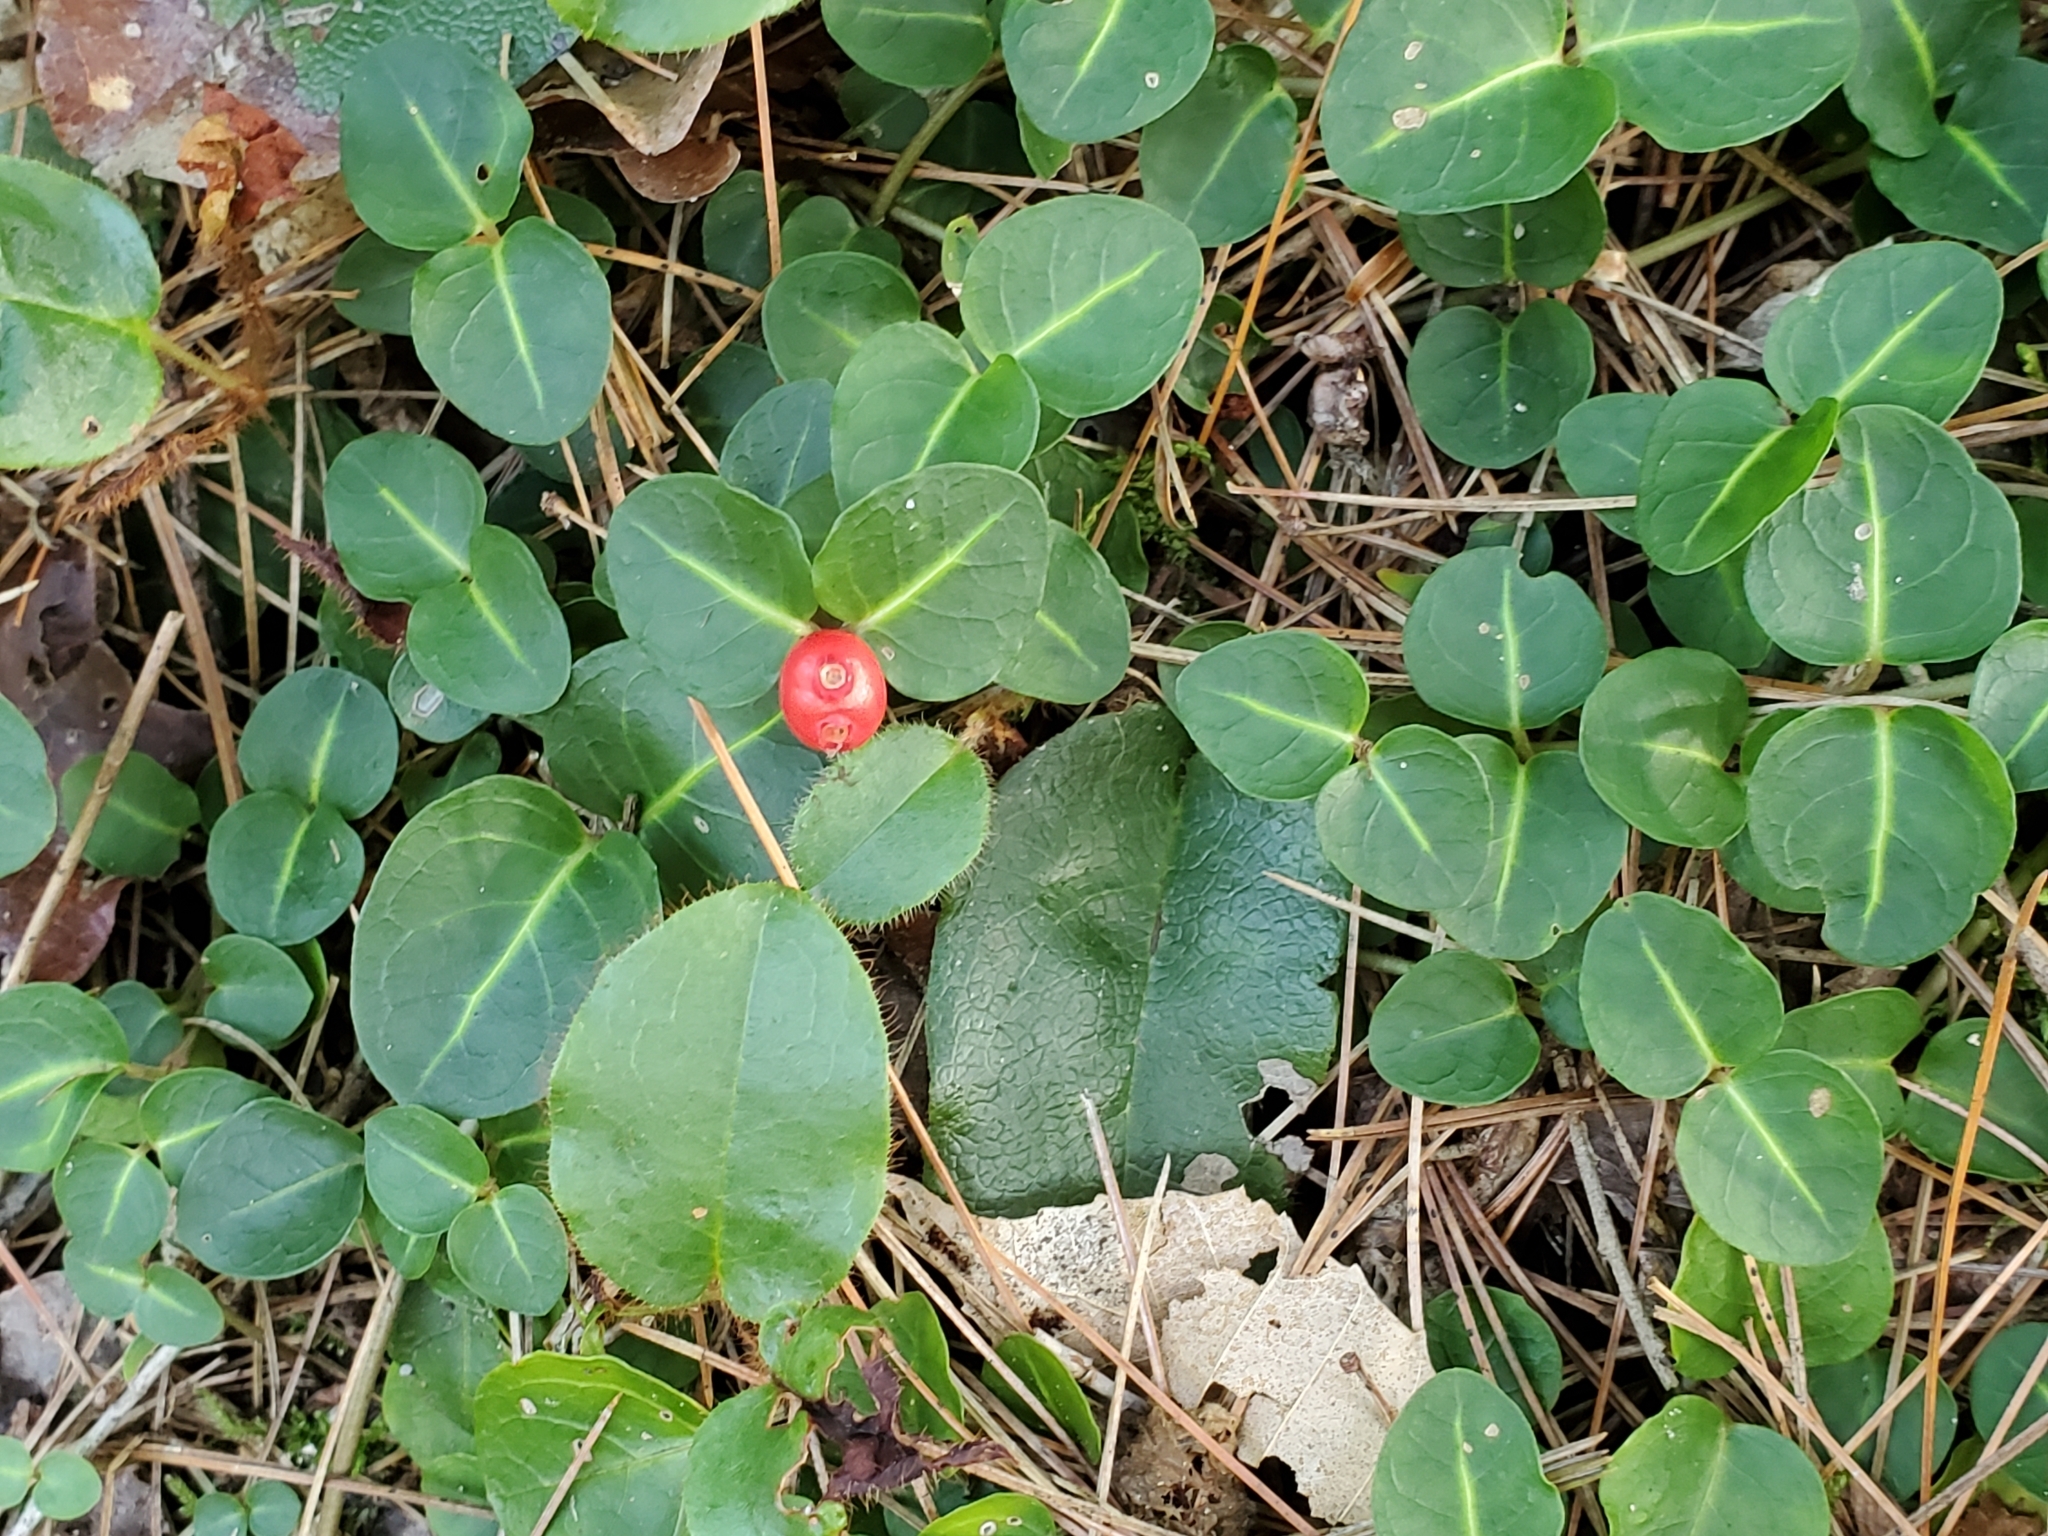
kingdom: Plantae
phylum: Tracheophyta
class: Magnoliopsida
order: Gentianales
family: Rubiaceae
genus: Mitchella
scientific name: Mitchella repens
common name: Partridge-berry
